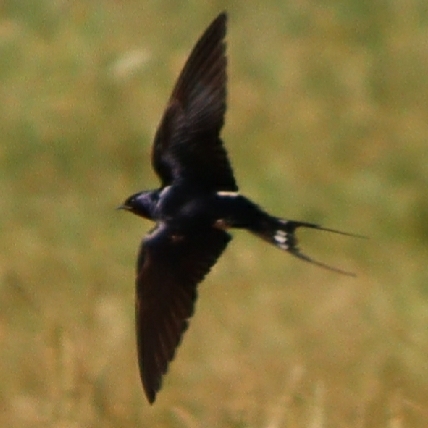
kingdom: Animalia
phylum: Chordata
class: Aves
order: Passeriformes
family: Hirundinidae
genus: Hirundo
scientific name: Hirundo rustica
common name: Barn swallow
